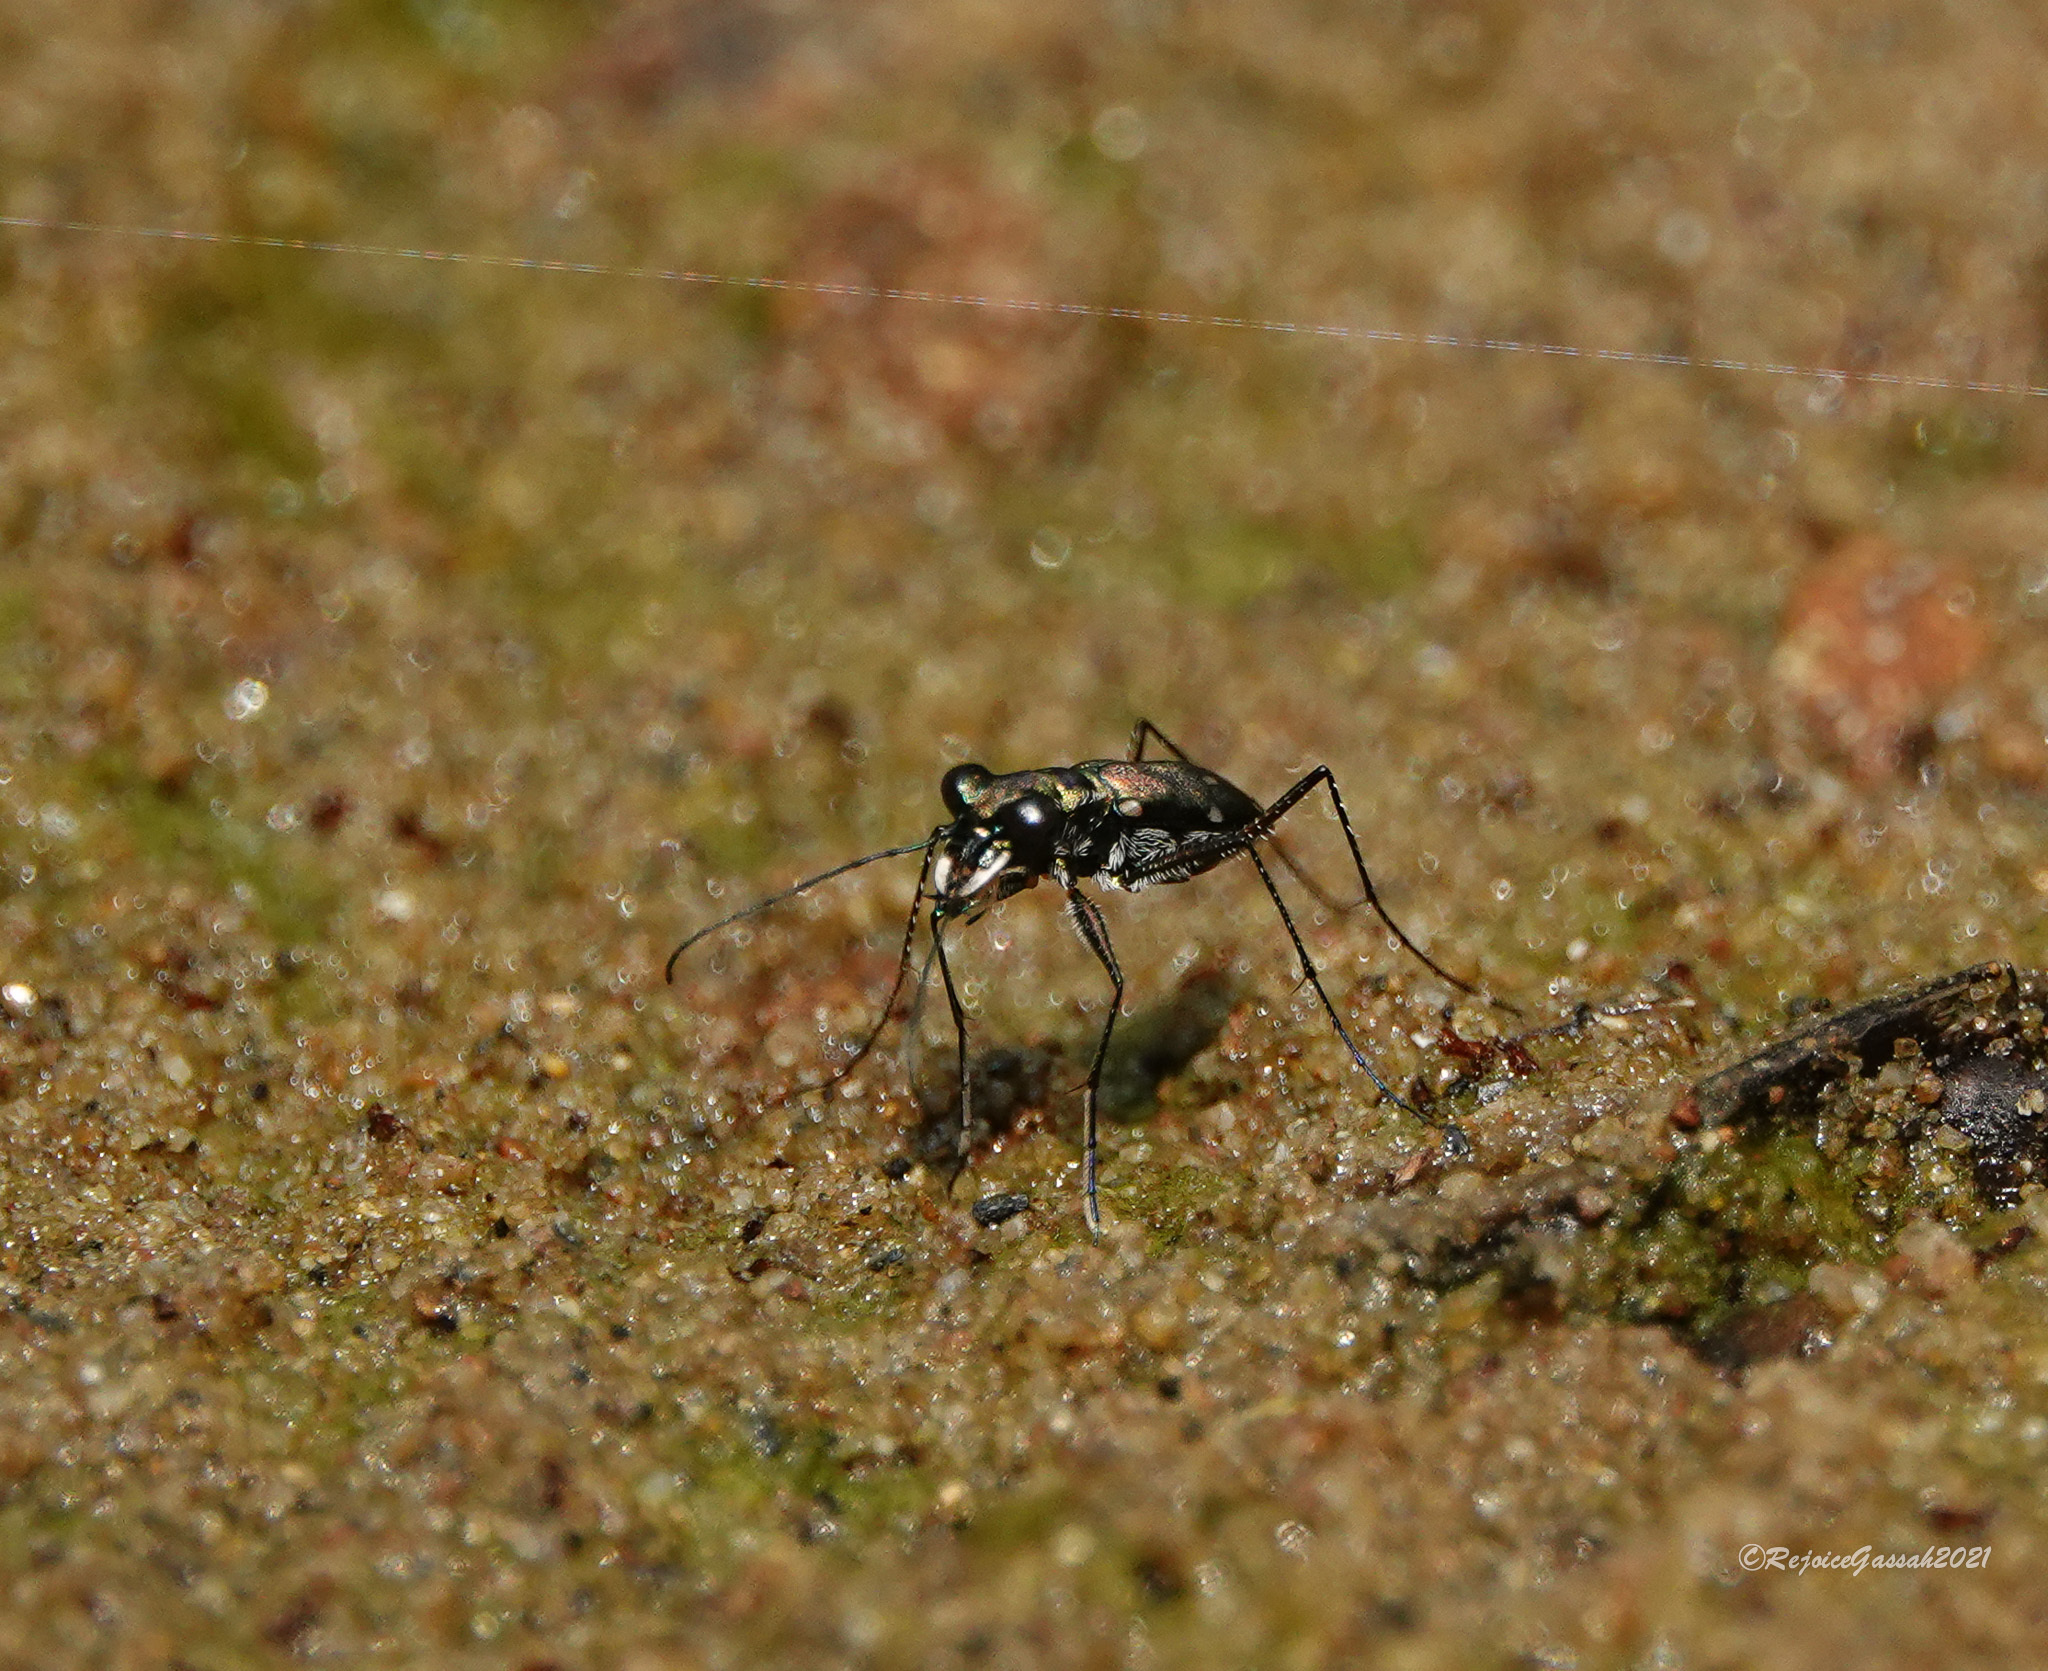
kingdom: Animalia
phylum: Arthropoda
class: Insecta
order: Coleoptera
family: Carabidae
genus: Cylindera
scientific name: Cylindera spinolae
